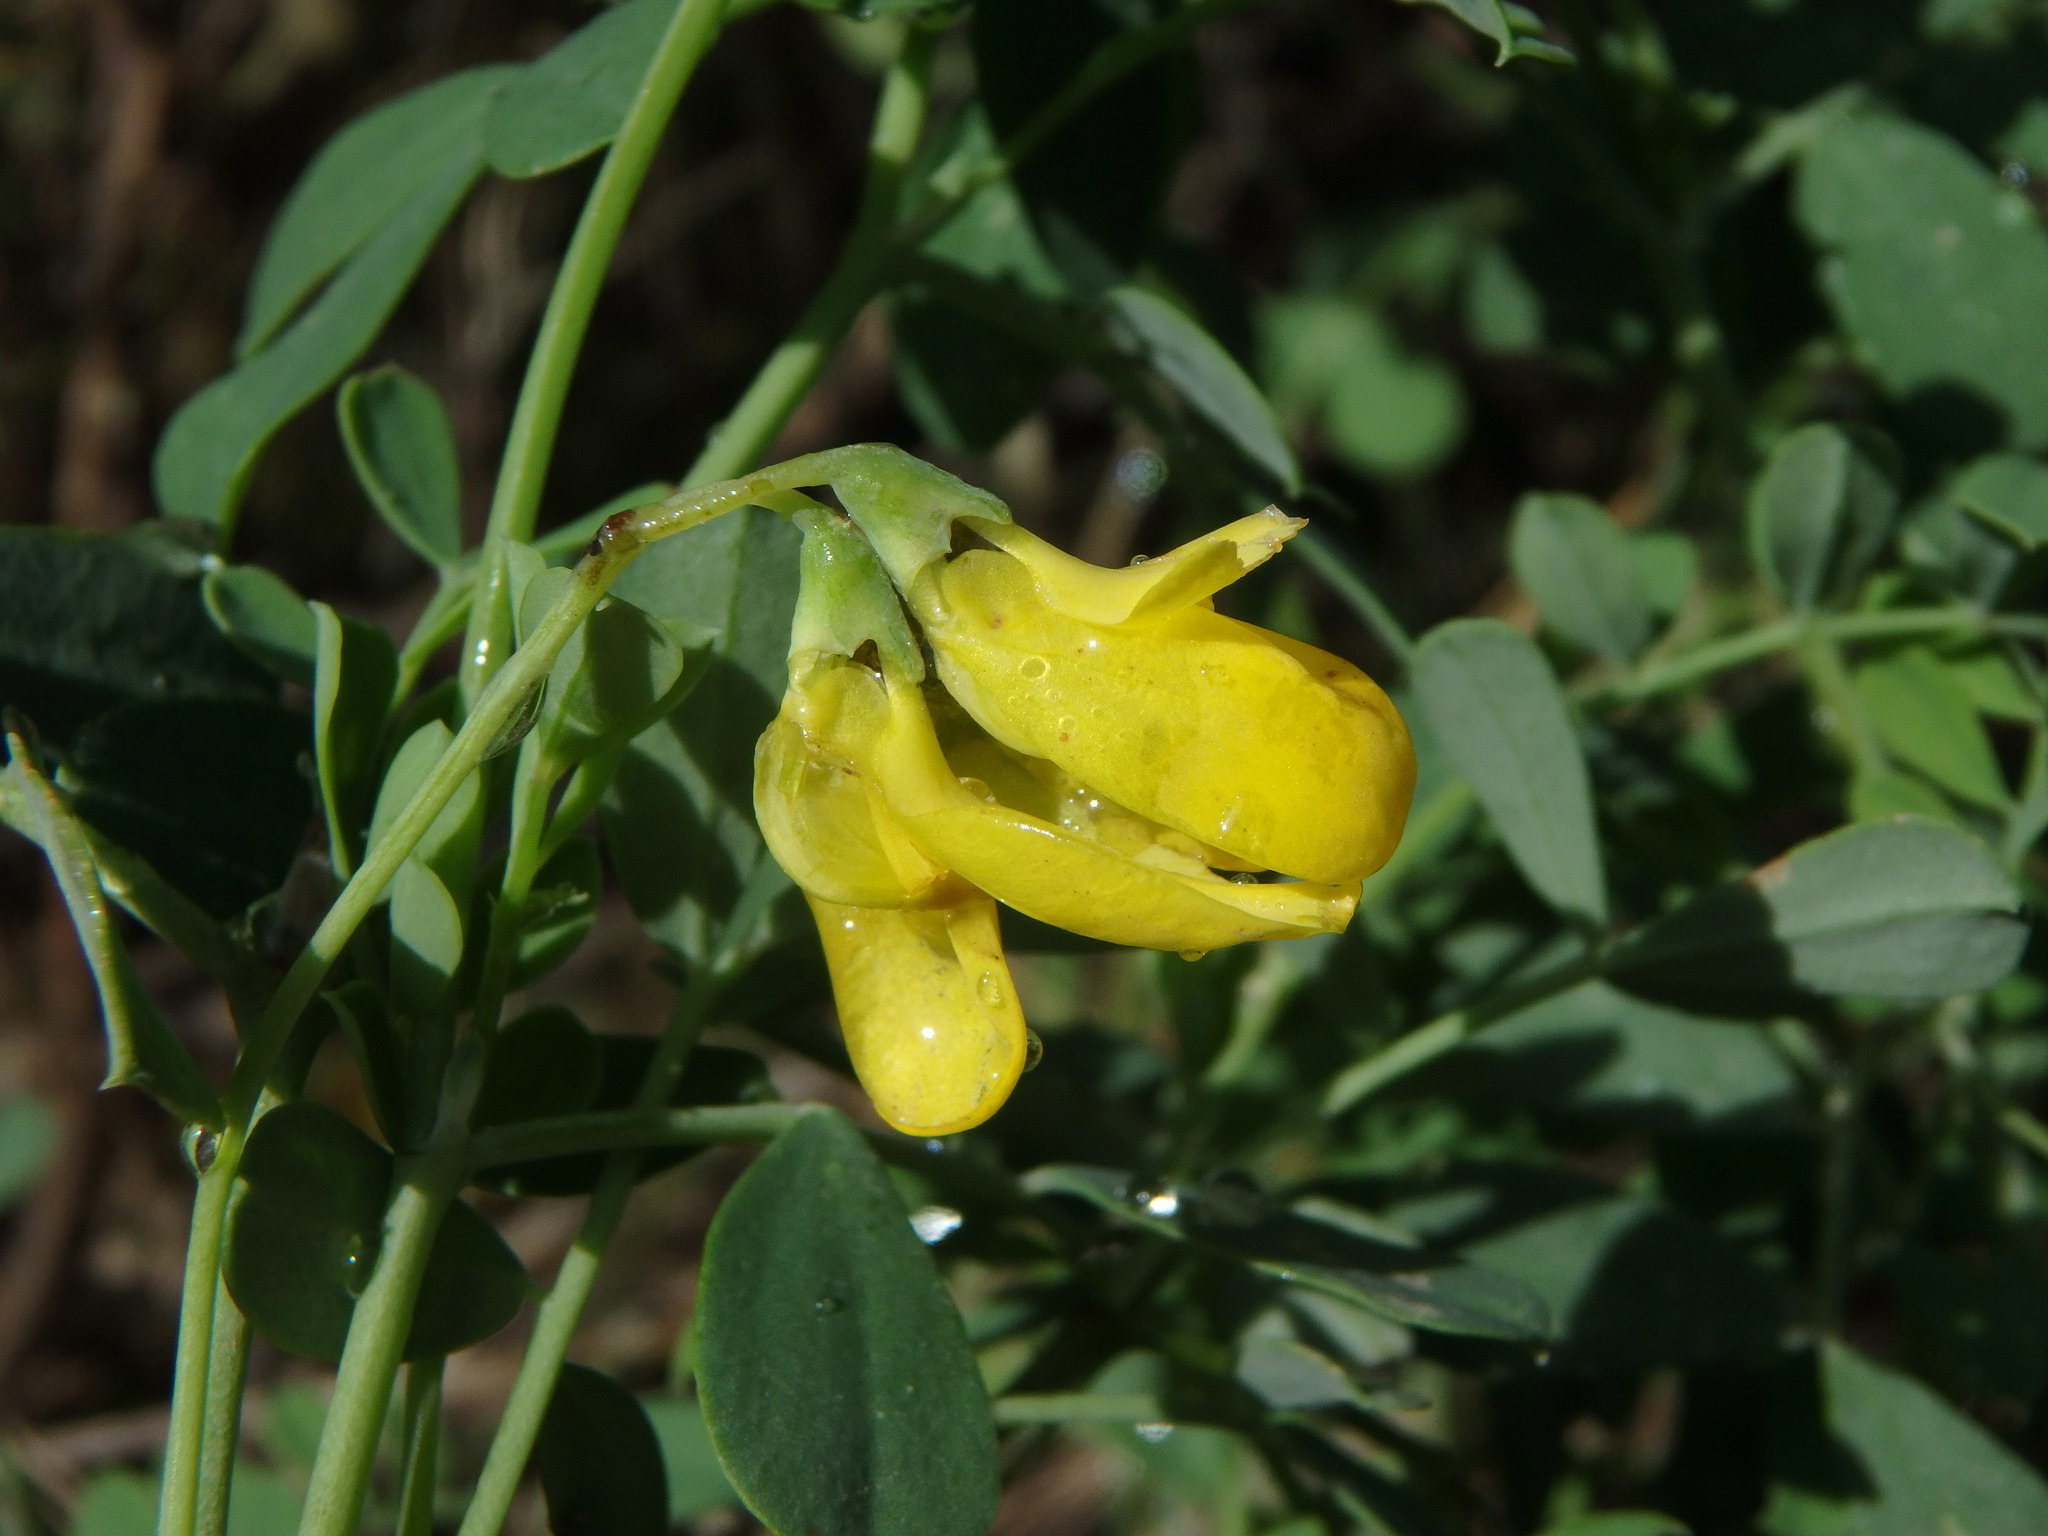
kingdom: Plantae
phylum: Tracheophyta
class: Magnoliopsida
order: Fabales
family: Fabaceae
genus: Hippocrepis
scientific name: Hippocrepis balearica
